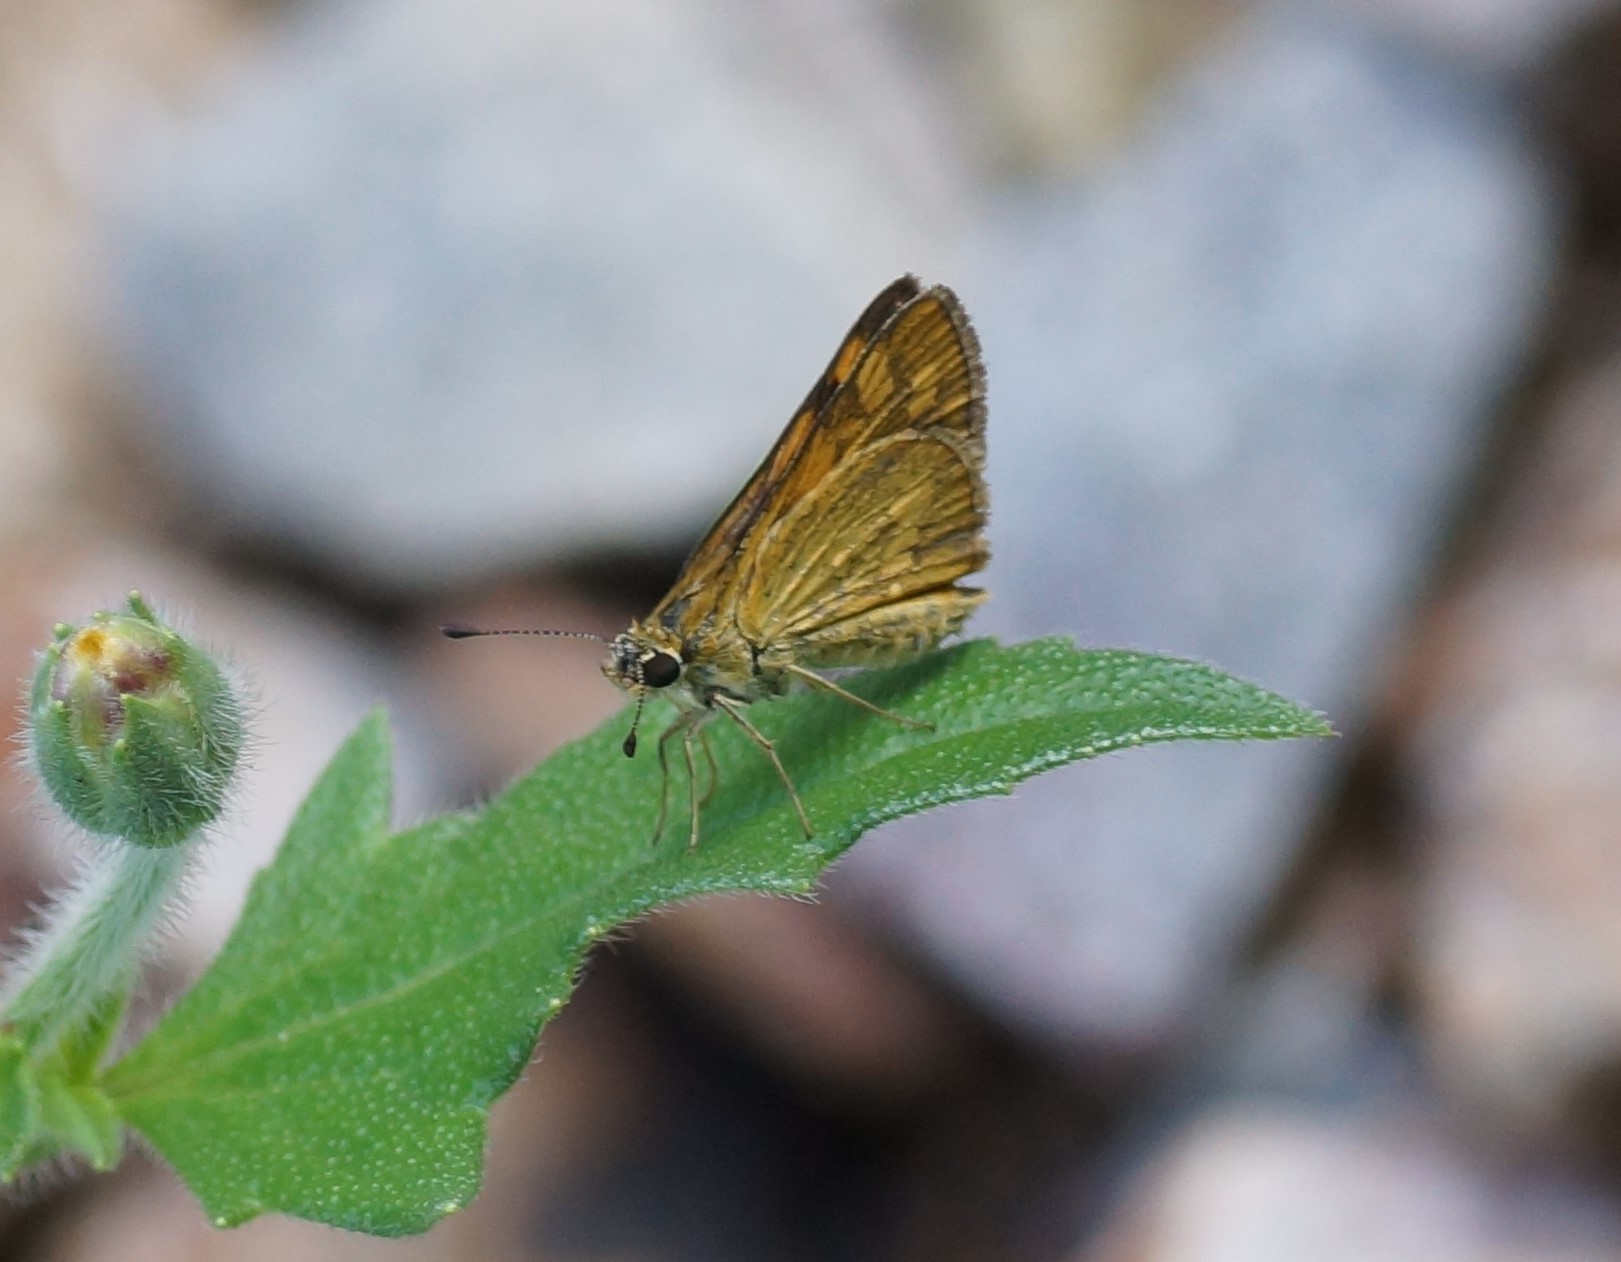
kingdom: Animalia
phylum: Arthropoda
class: Insecta
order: Lepidoptera
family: Hesperiidae
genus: Taractrocera
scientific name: Taractrocera ina
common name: Ina grass-dart
